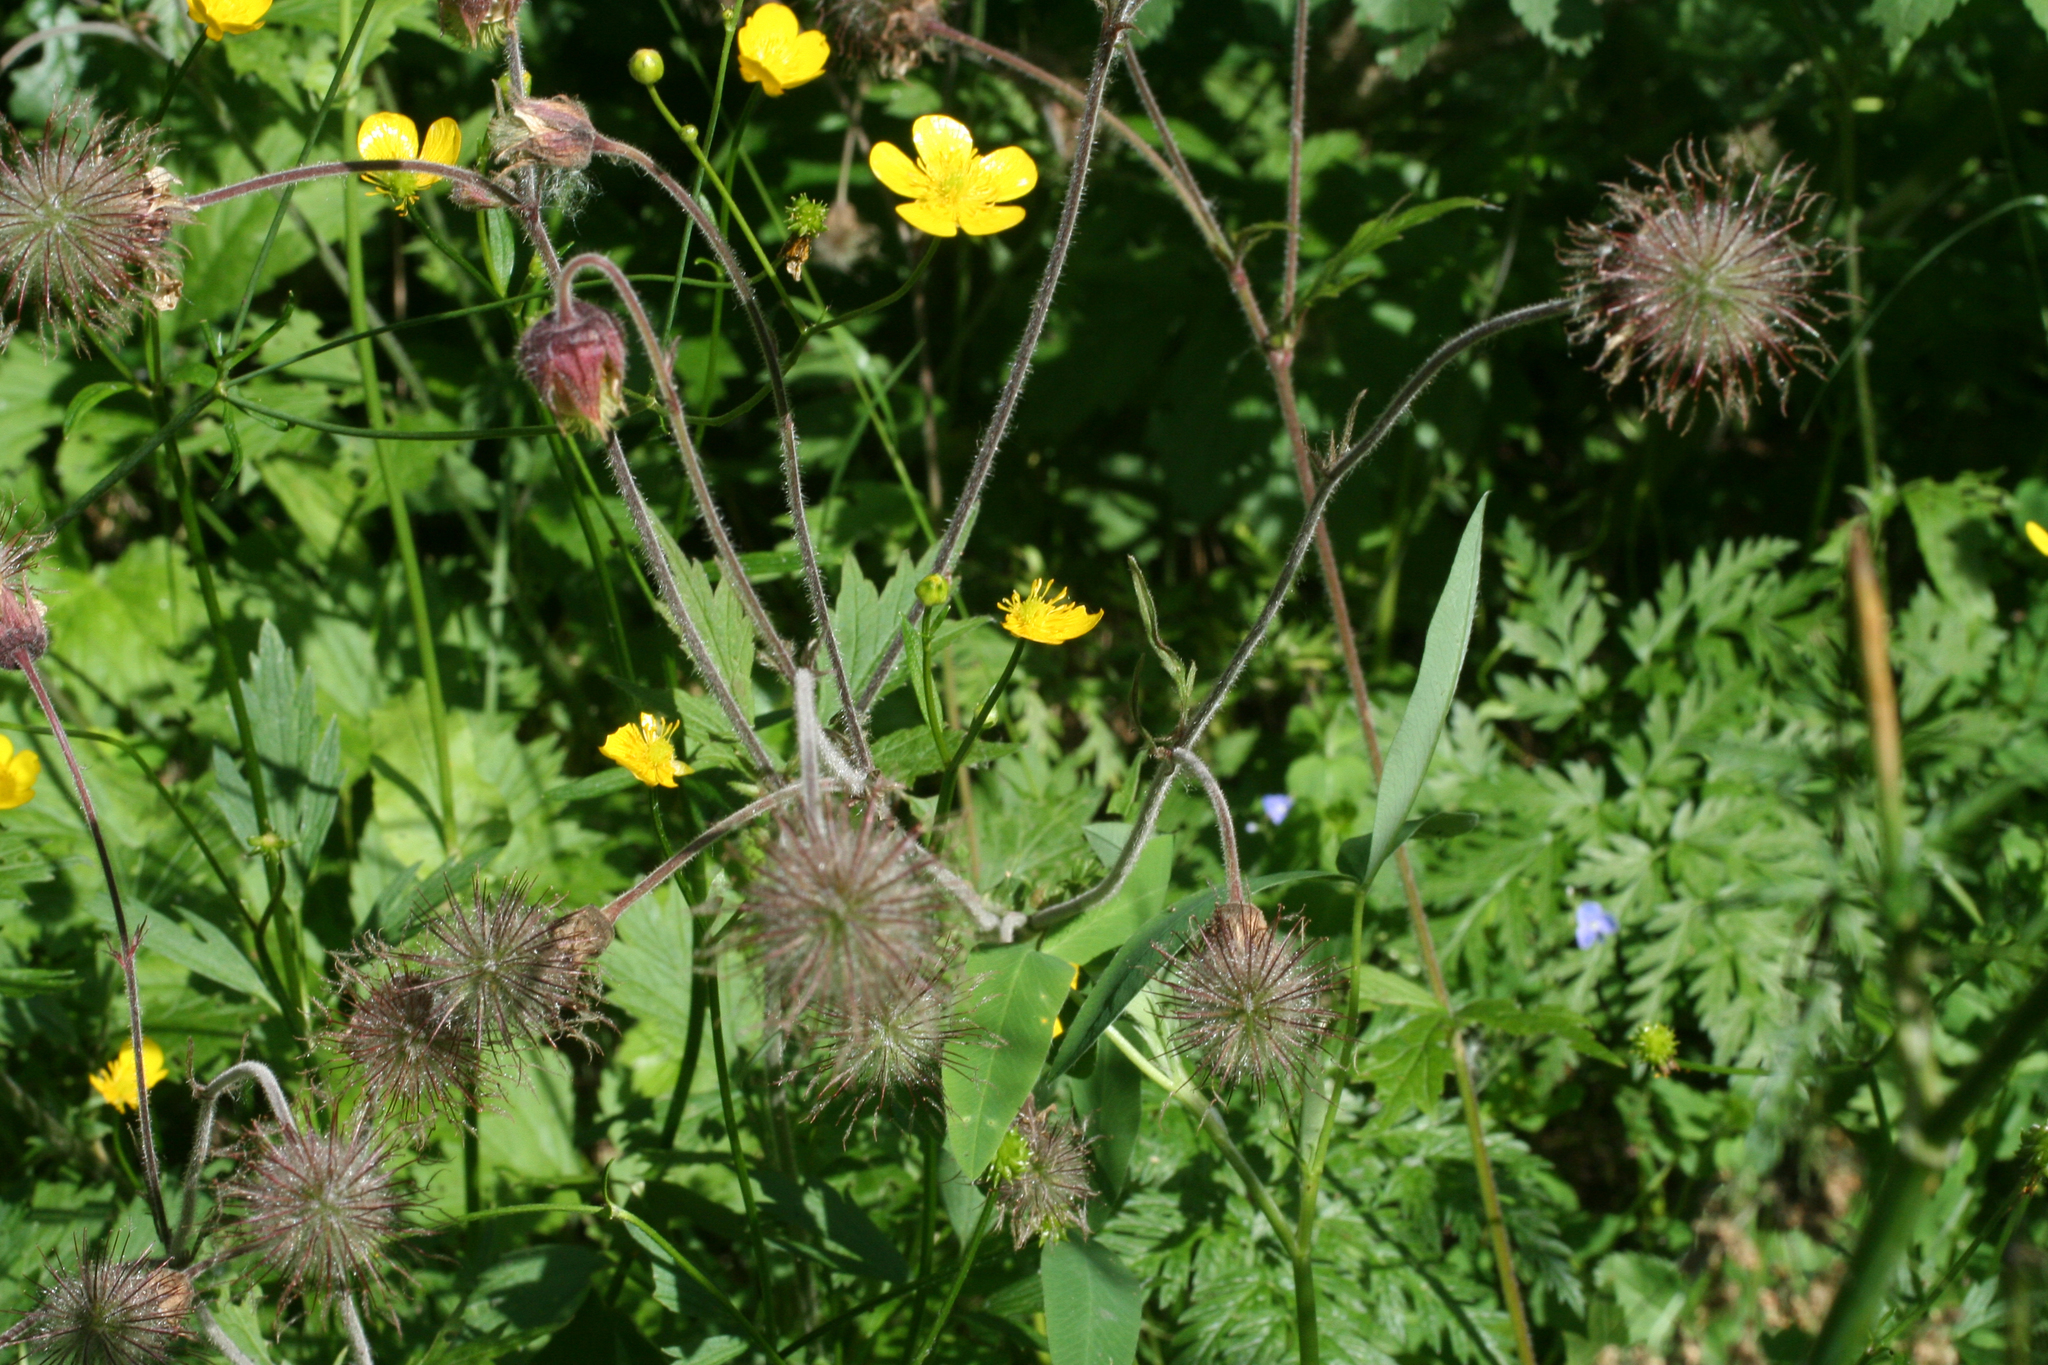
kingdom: Plantae
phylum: Tracheophyta
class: Magnoliopsida
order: Rosales
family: Rosaceae
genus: Geum
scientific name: Geum rivale
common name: Water avens
